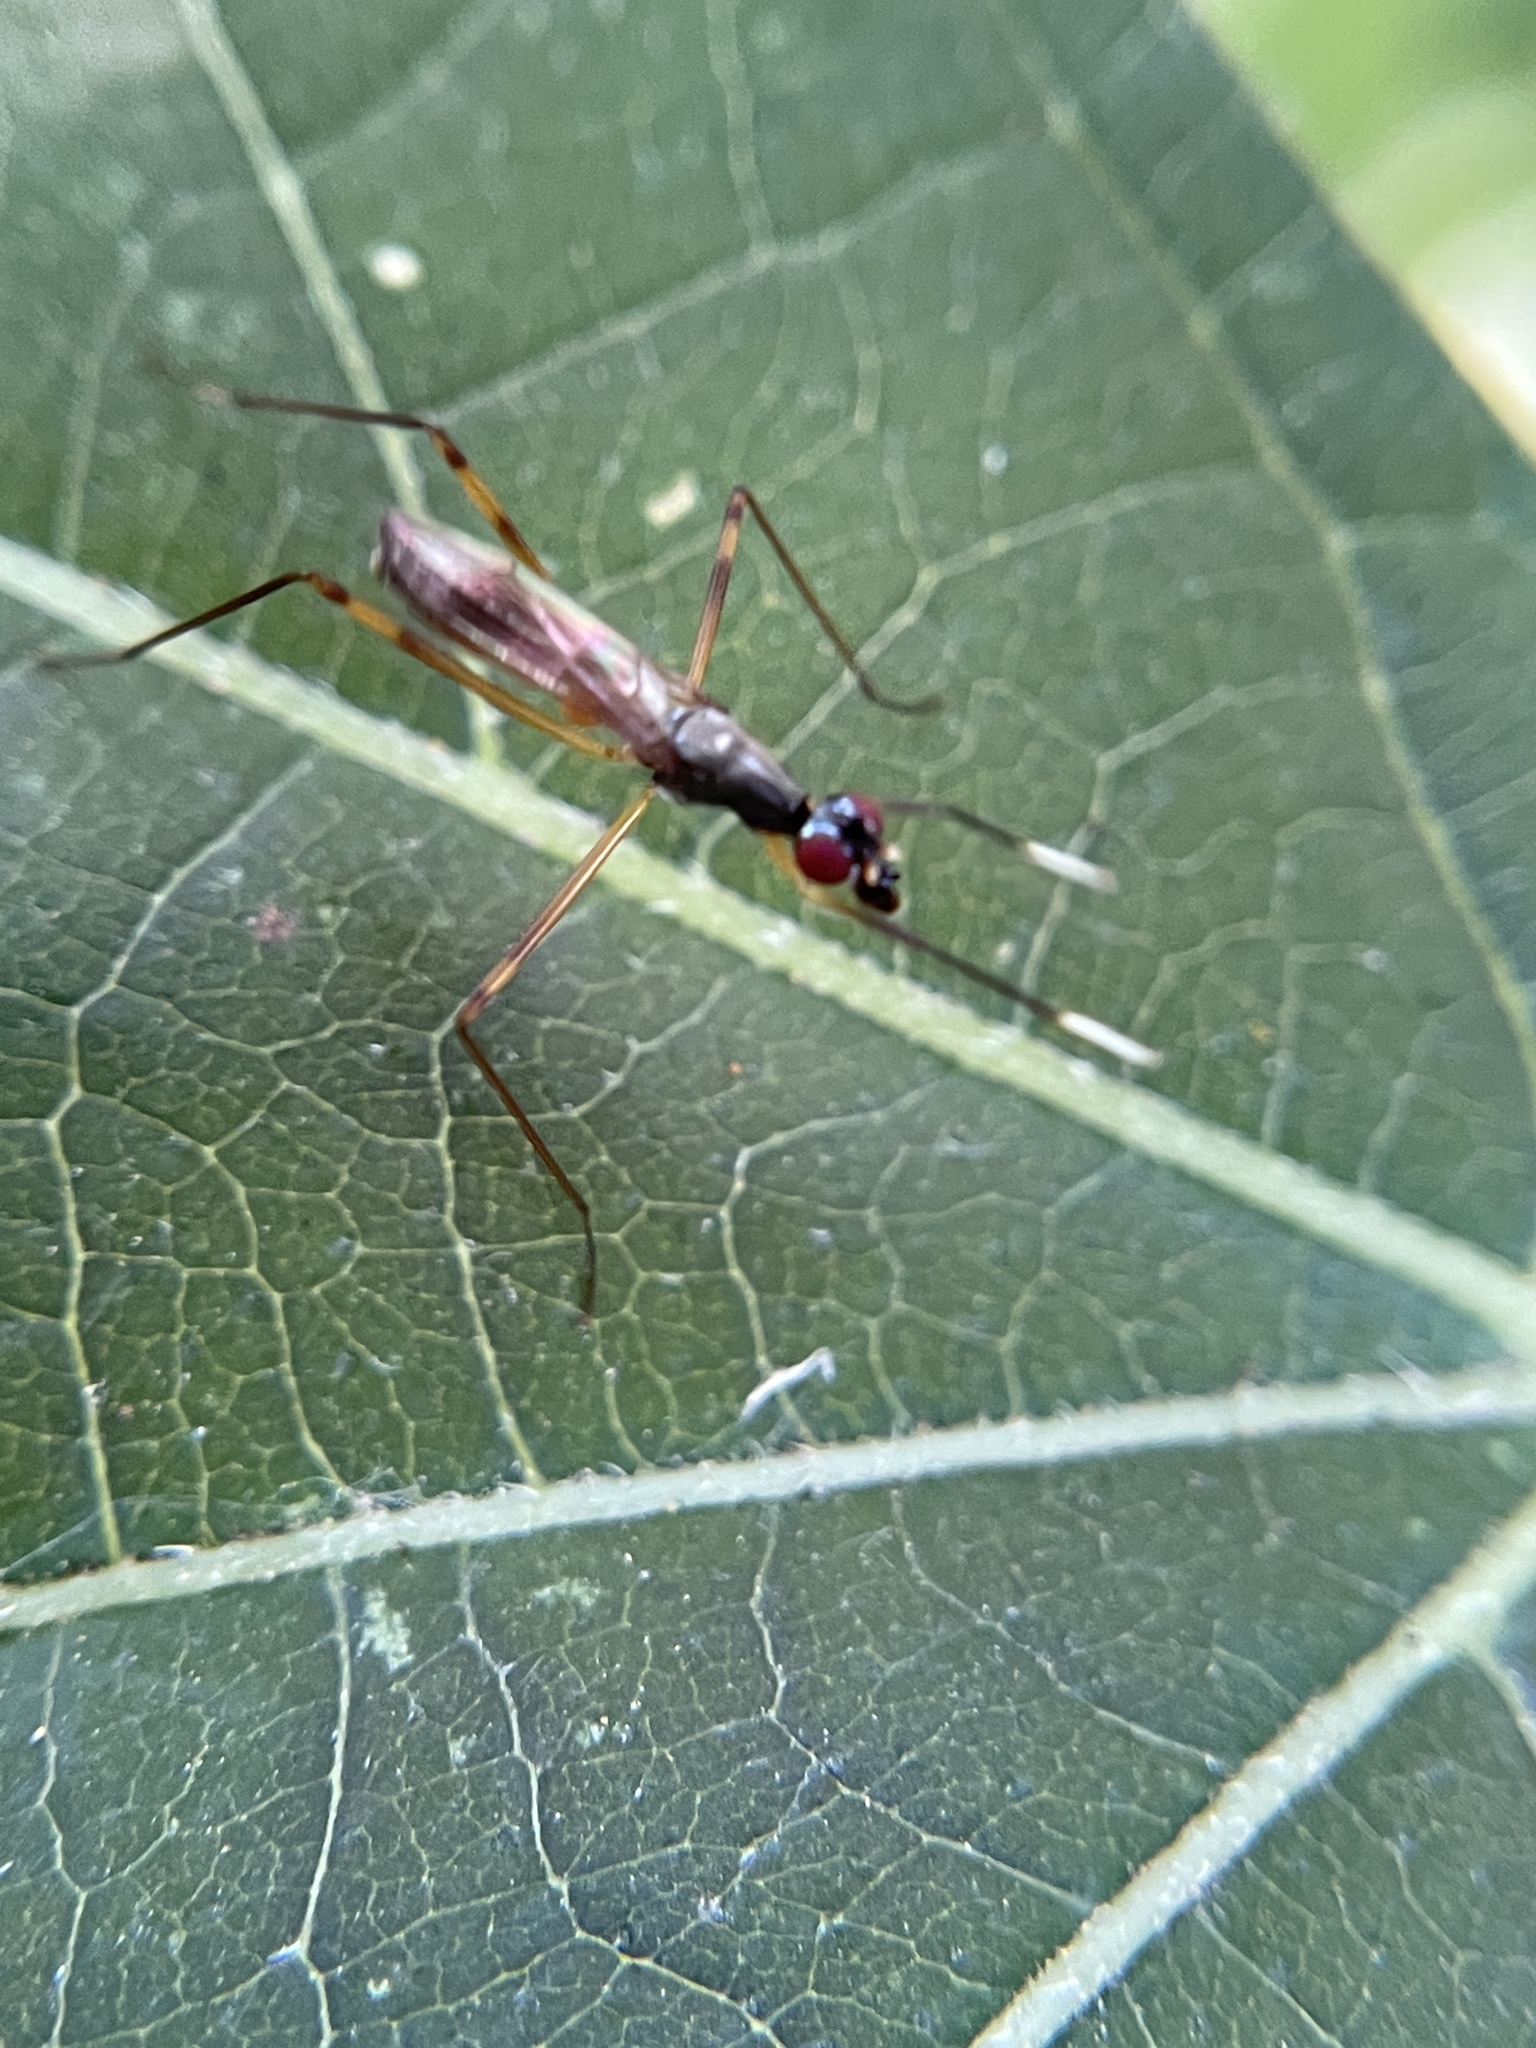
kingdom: Animalia
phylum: Arthropoda
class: Insecta
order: Diptera
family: Micropezidae
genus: Rainieria
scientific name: Rainieria antennaepes
